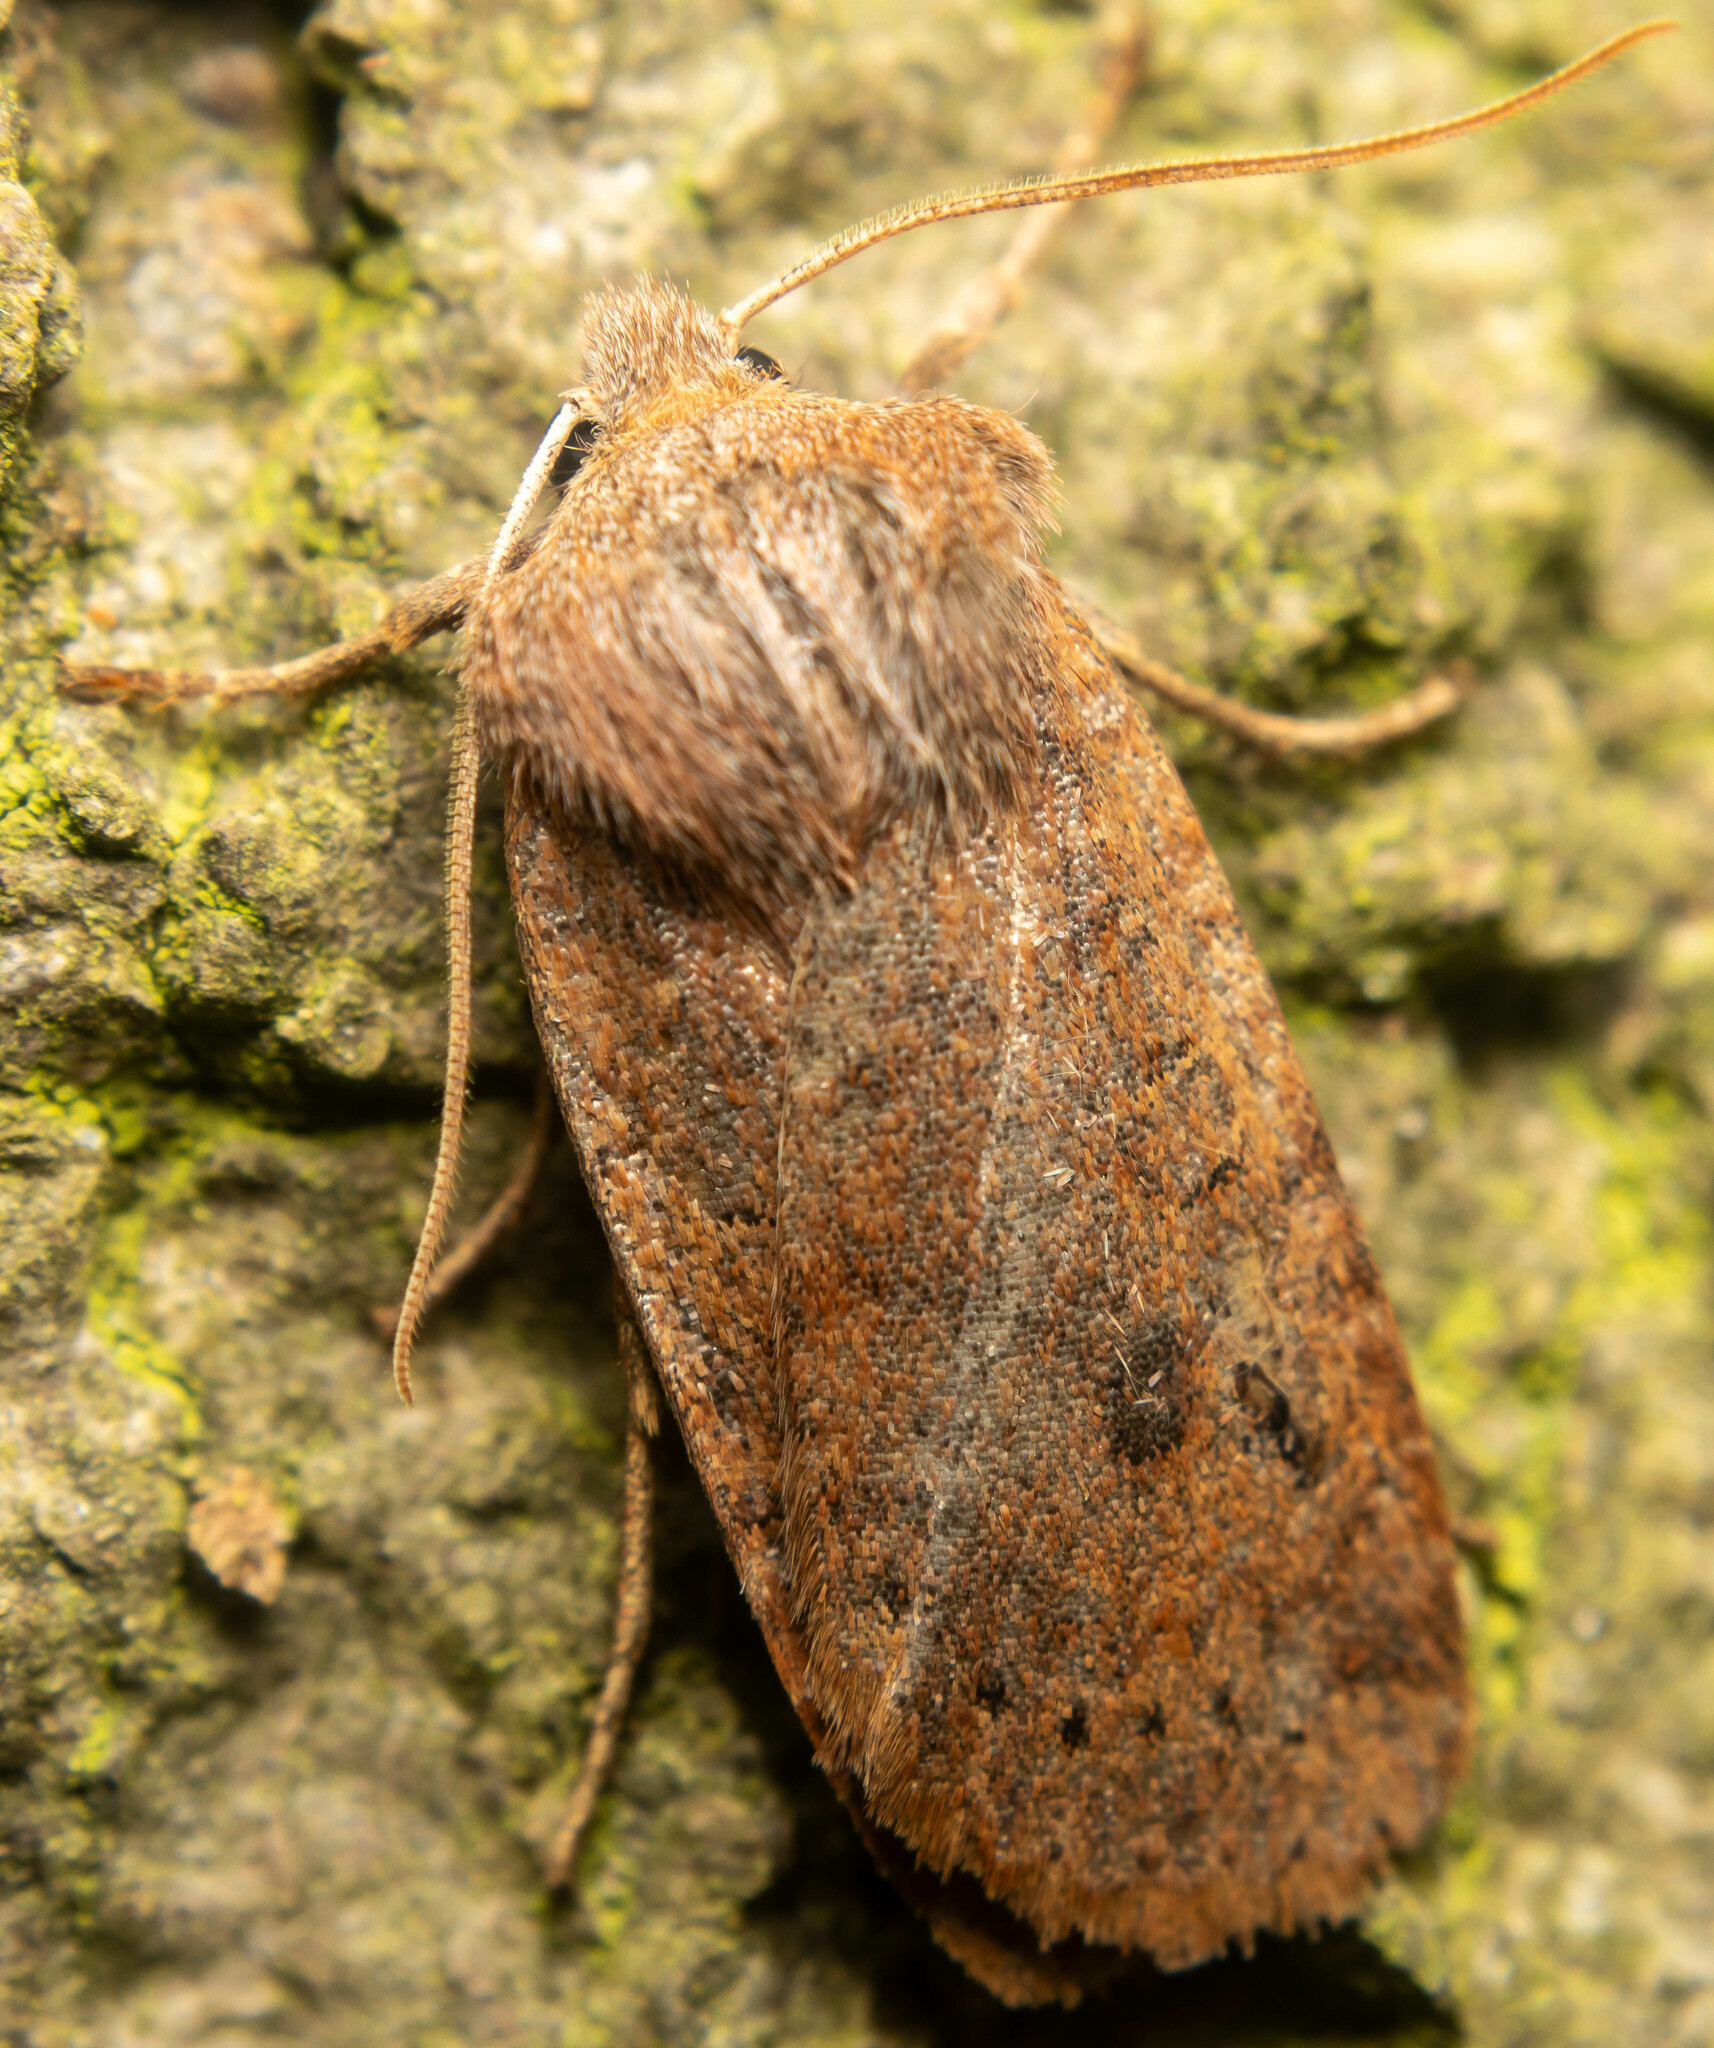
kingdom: Animalia
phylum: Arthropoda
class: Insecta
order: Lepidoptera
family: Noctuidae
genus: Conistra
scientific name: Conistra vaccinii
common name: Chestnut
